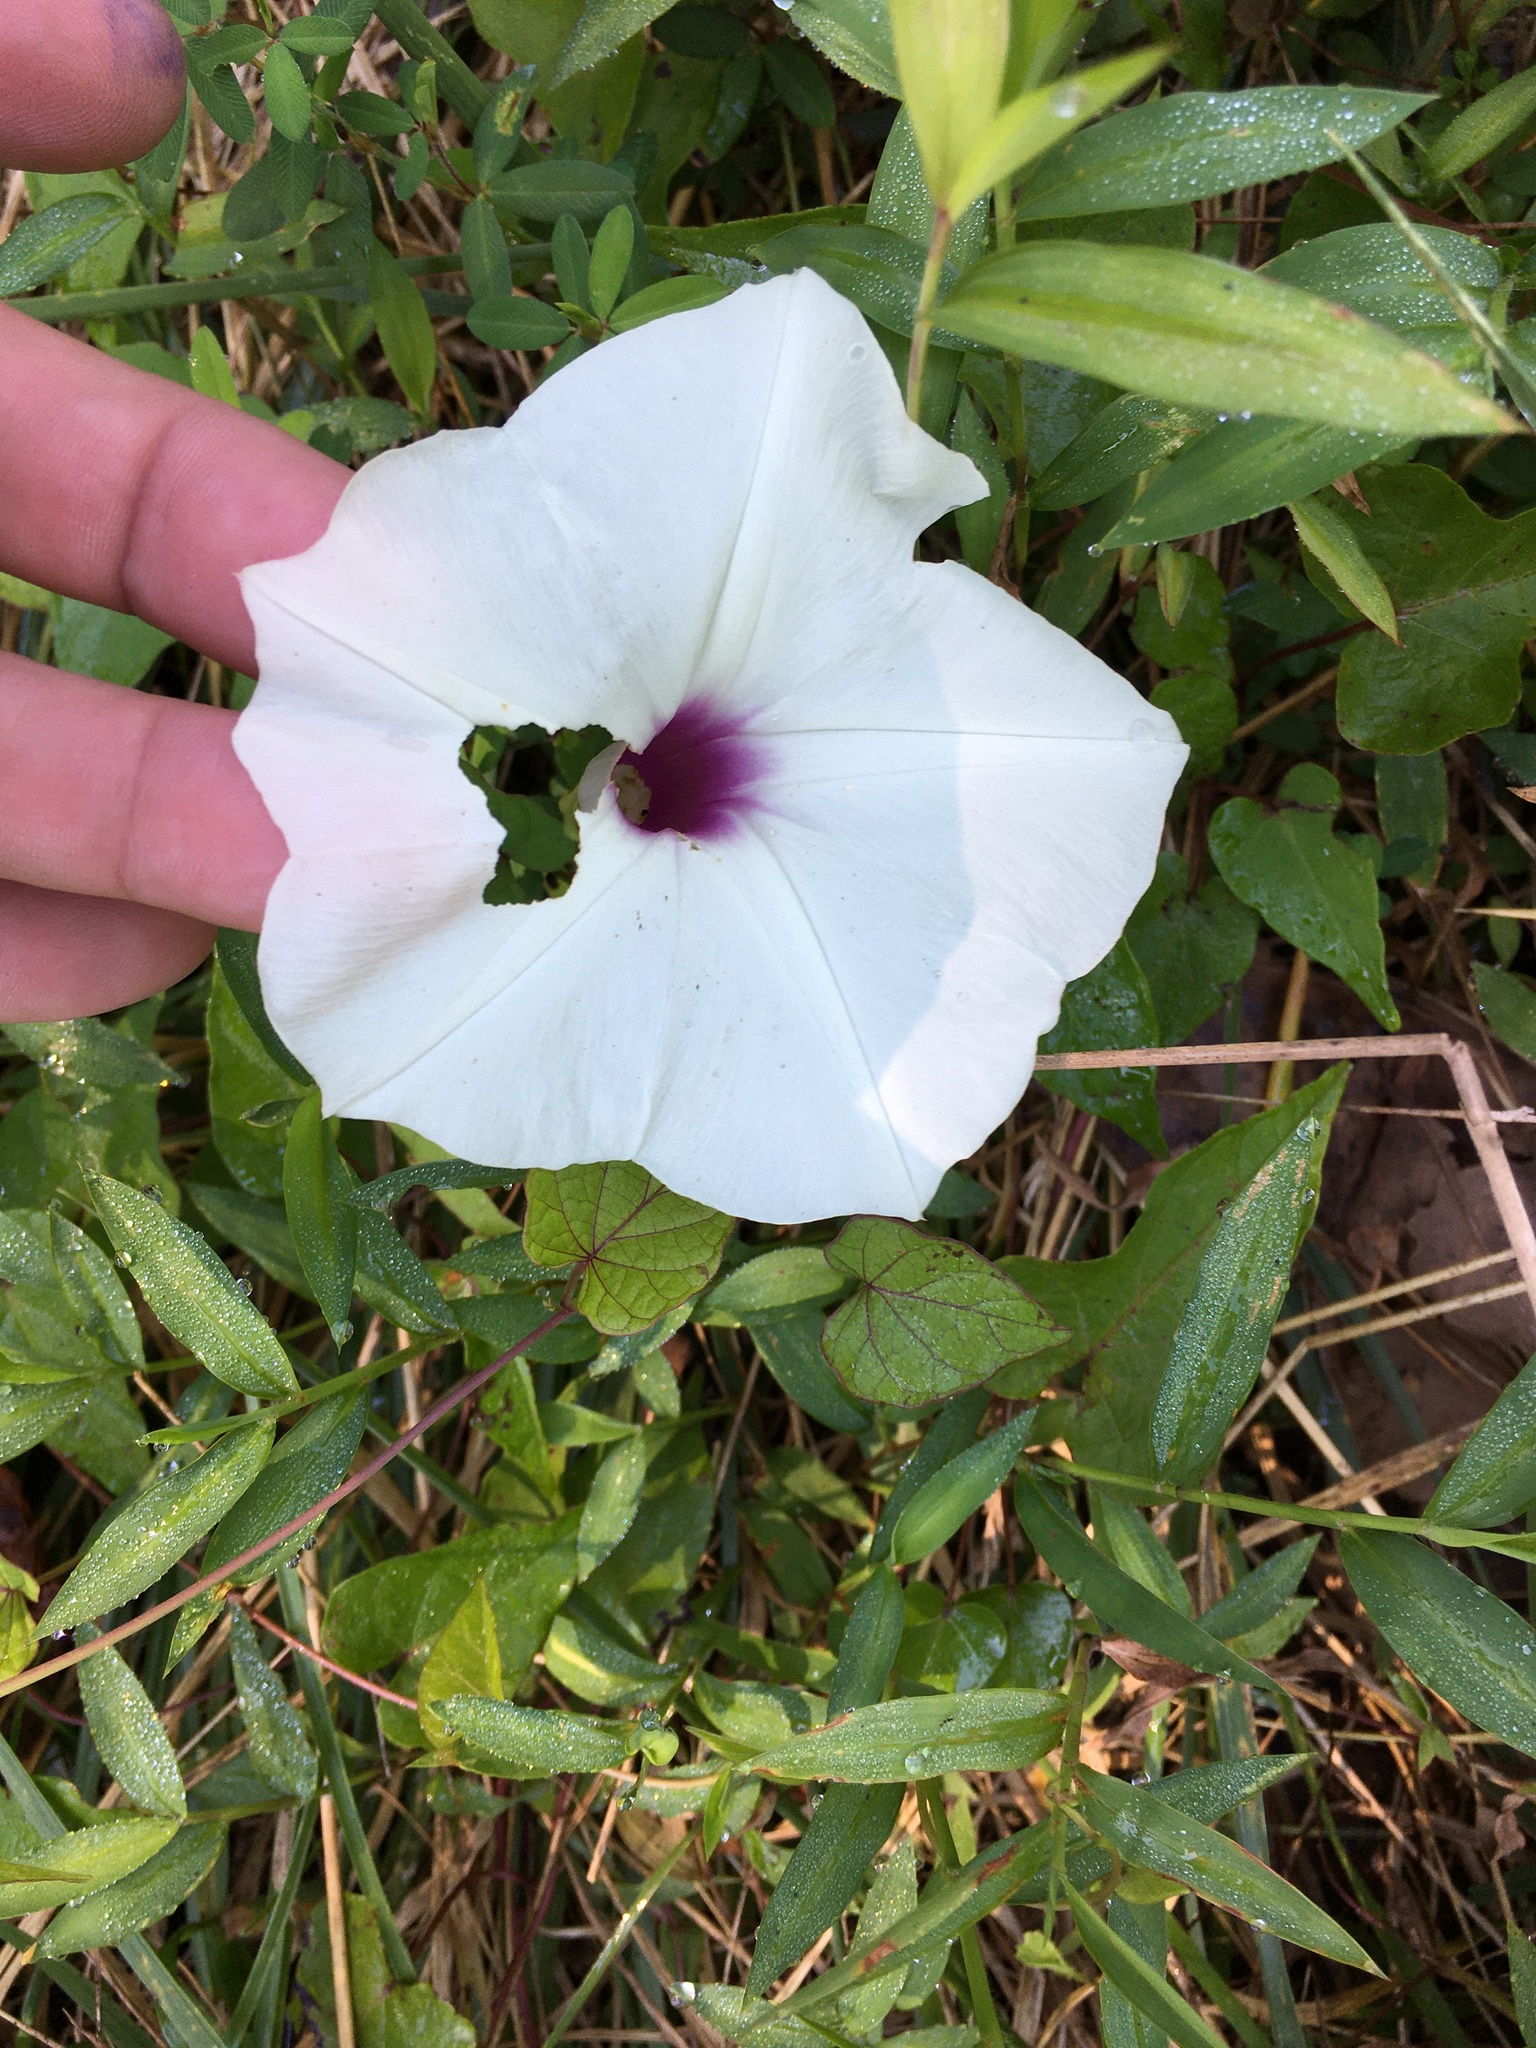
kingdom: Plantae
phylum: Tracheophyta
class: Magnoliopsida
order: Solanales
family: Convolvulaceae
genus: Ipomoea
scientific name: Ipomoea pandurata
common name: Man-of-the-earth
